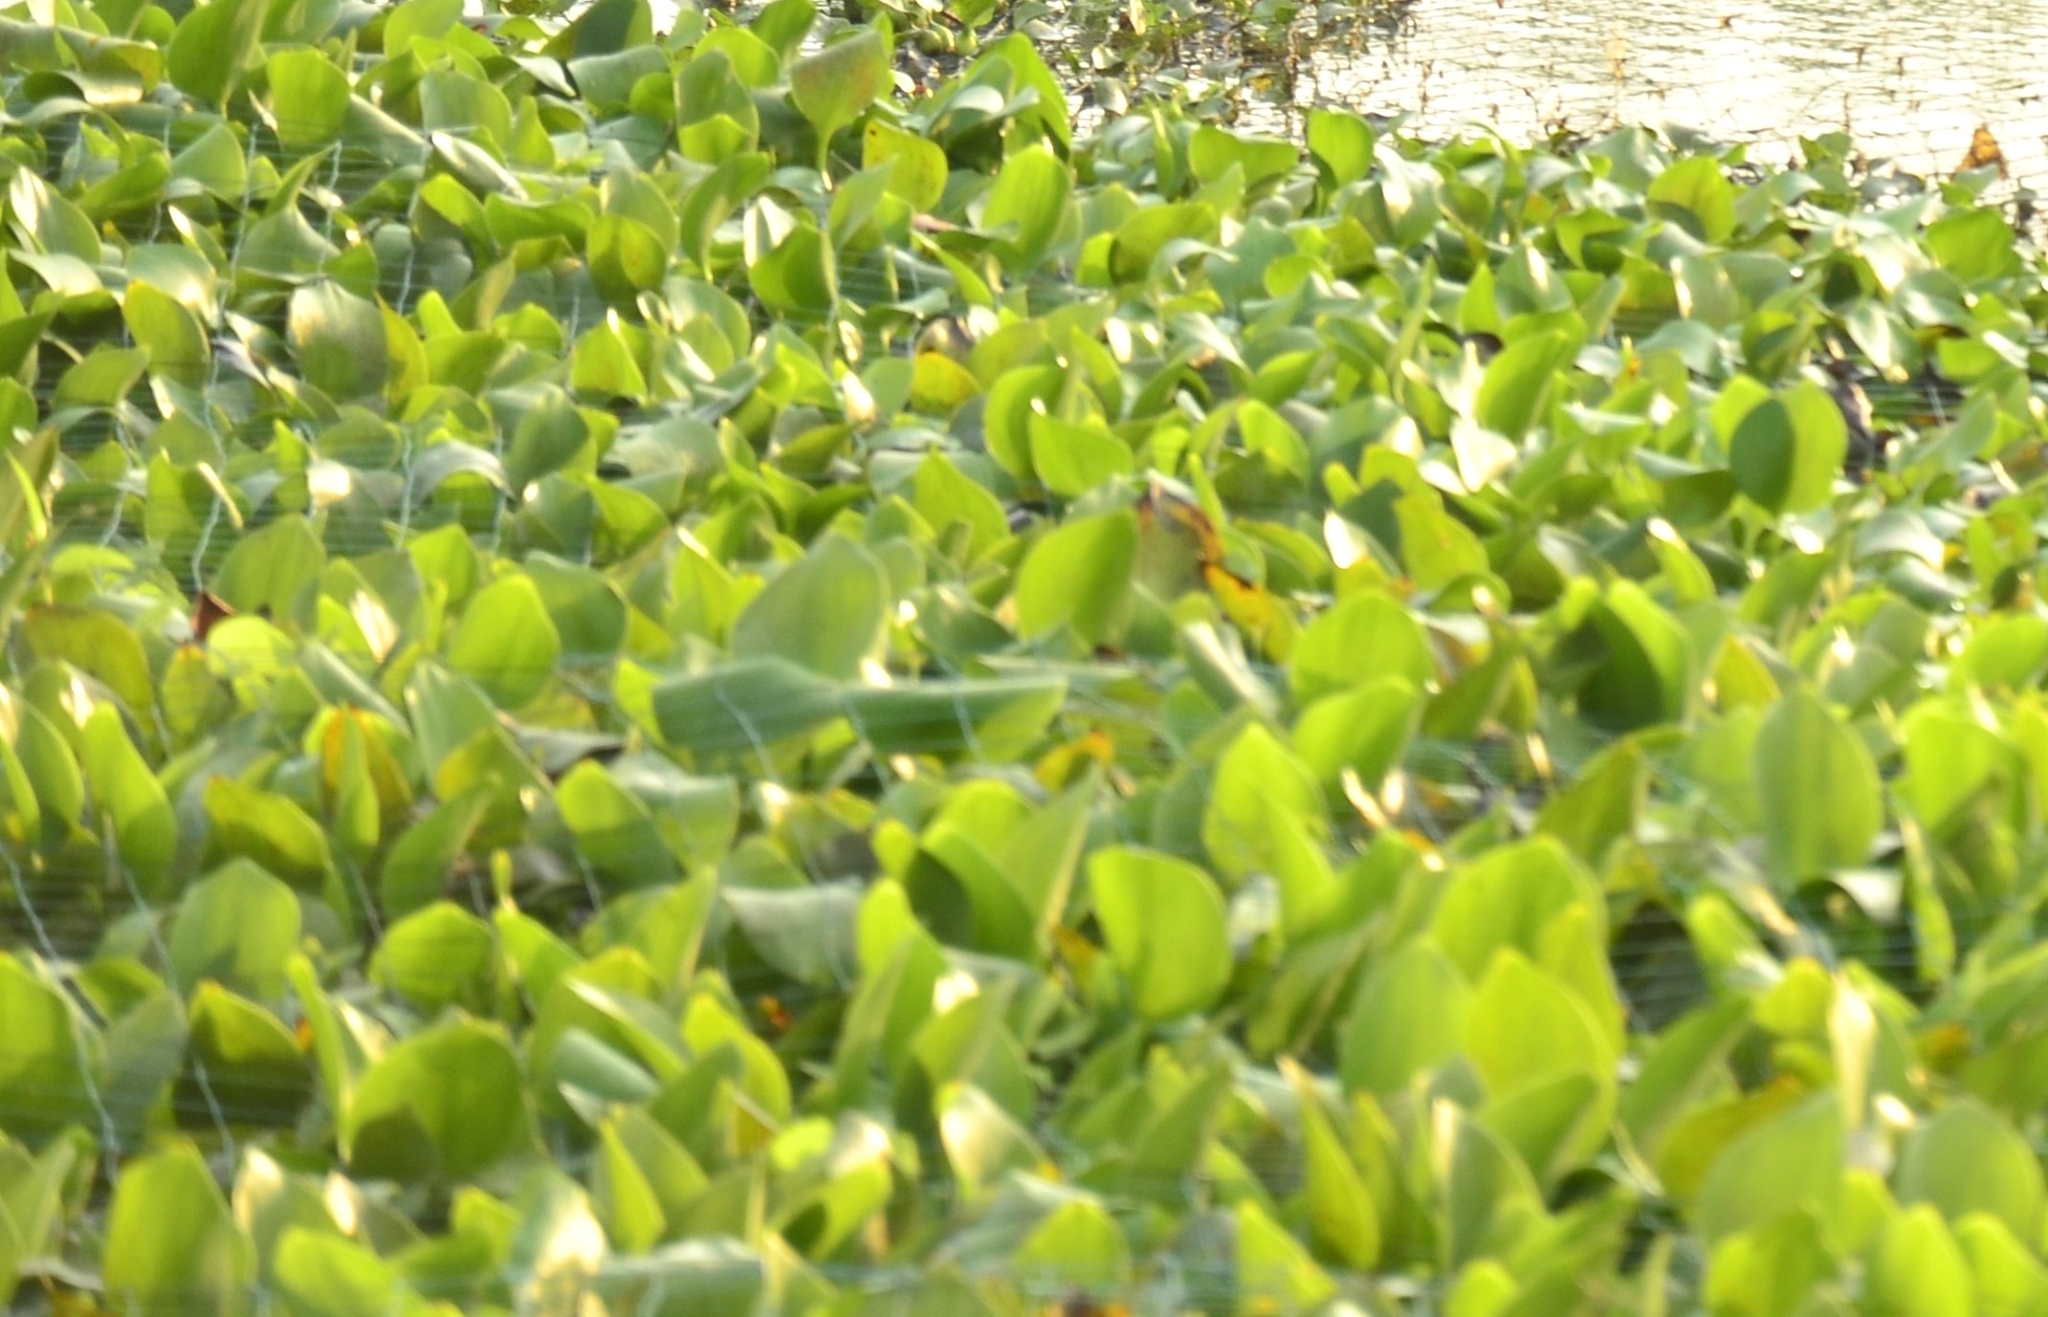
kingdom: Plantae
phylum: Tracheophyta
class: Liliopsida
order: Commelinales
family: Pontederiaceae
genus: Pontederia
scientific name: Pontederia crassipes
